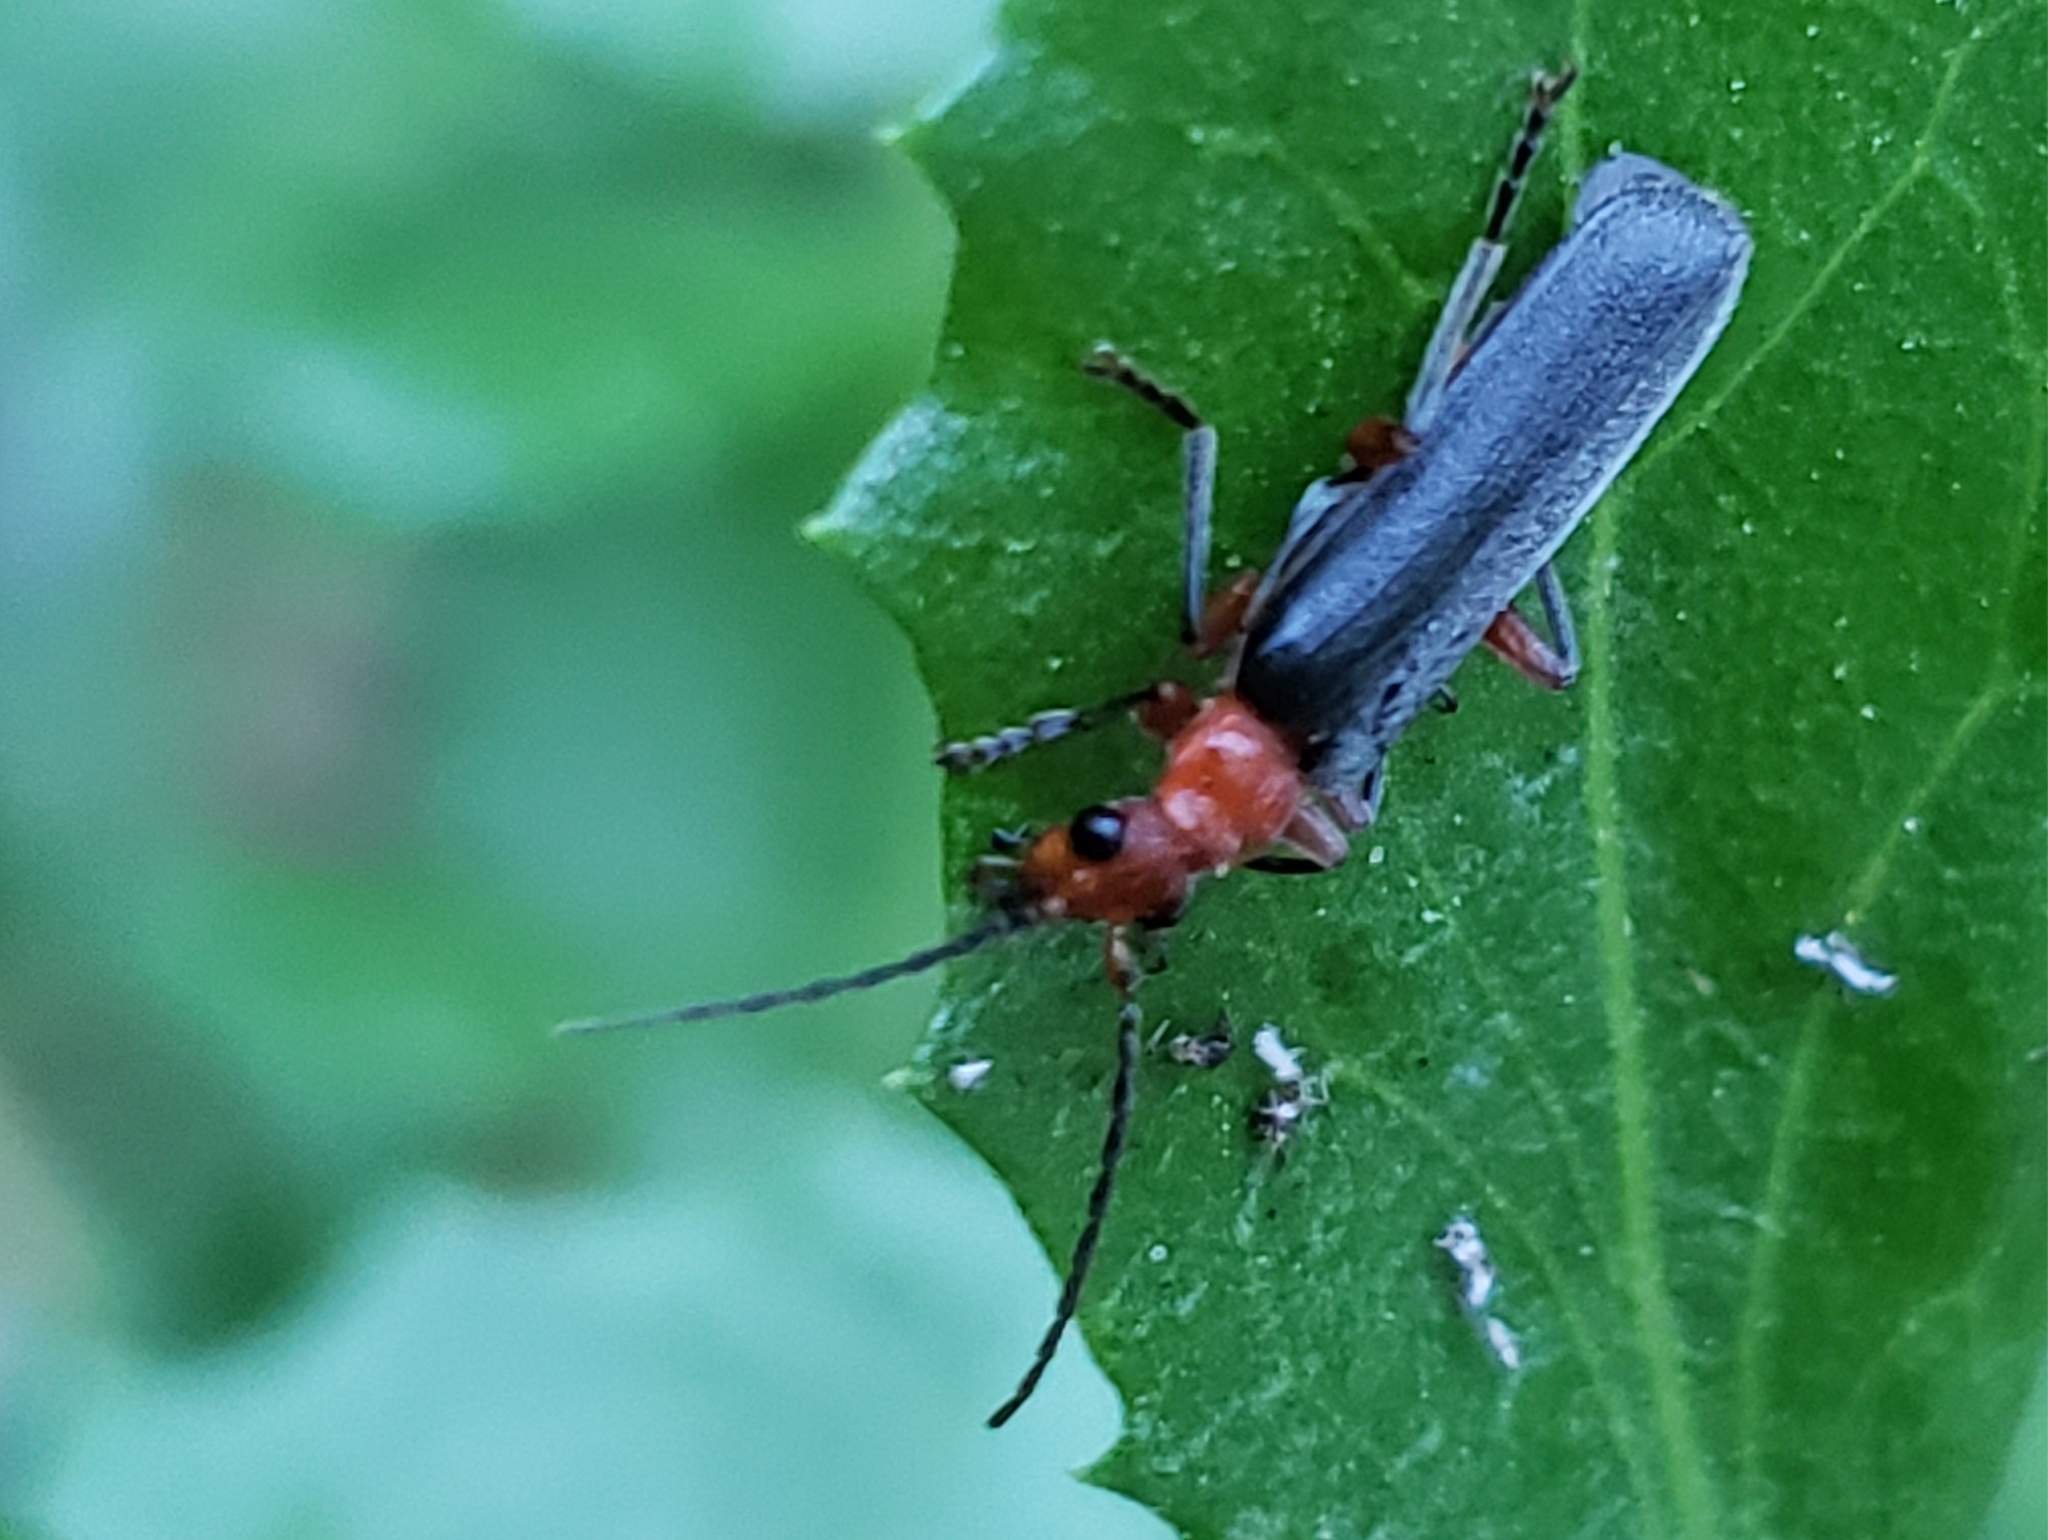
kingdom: Animalia
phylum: Arthropoda
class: Insecta
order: Coleoptera
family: Cantharidae
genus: Podabrus
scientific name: Podabrus pruinosus
